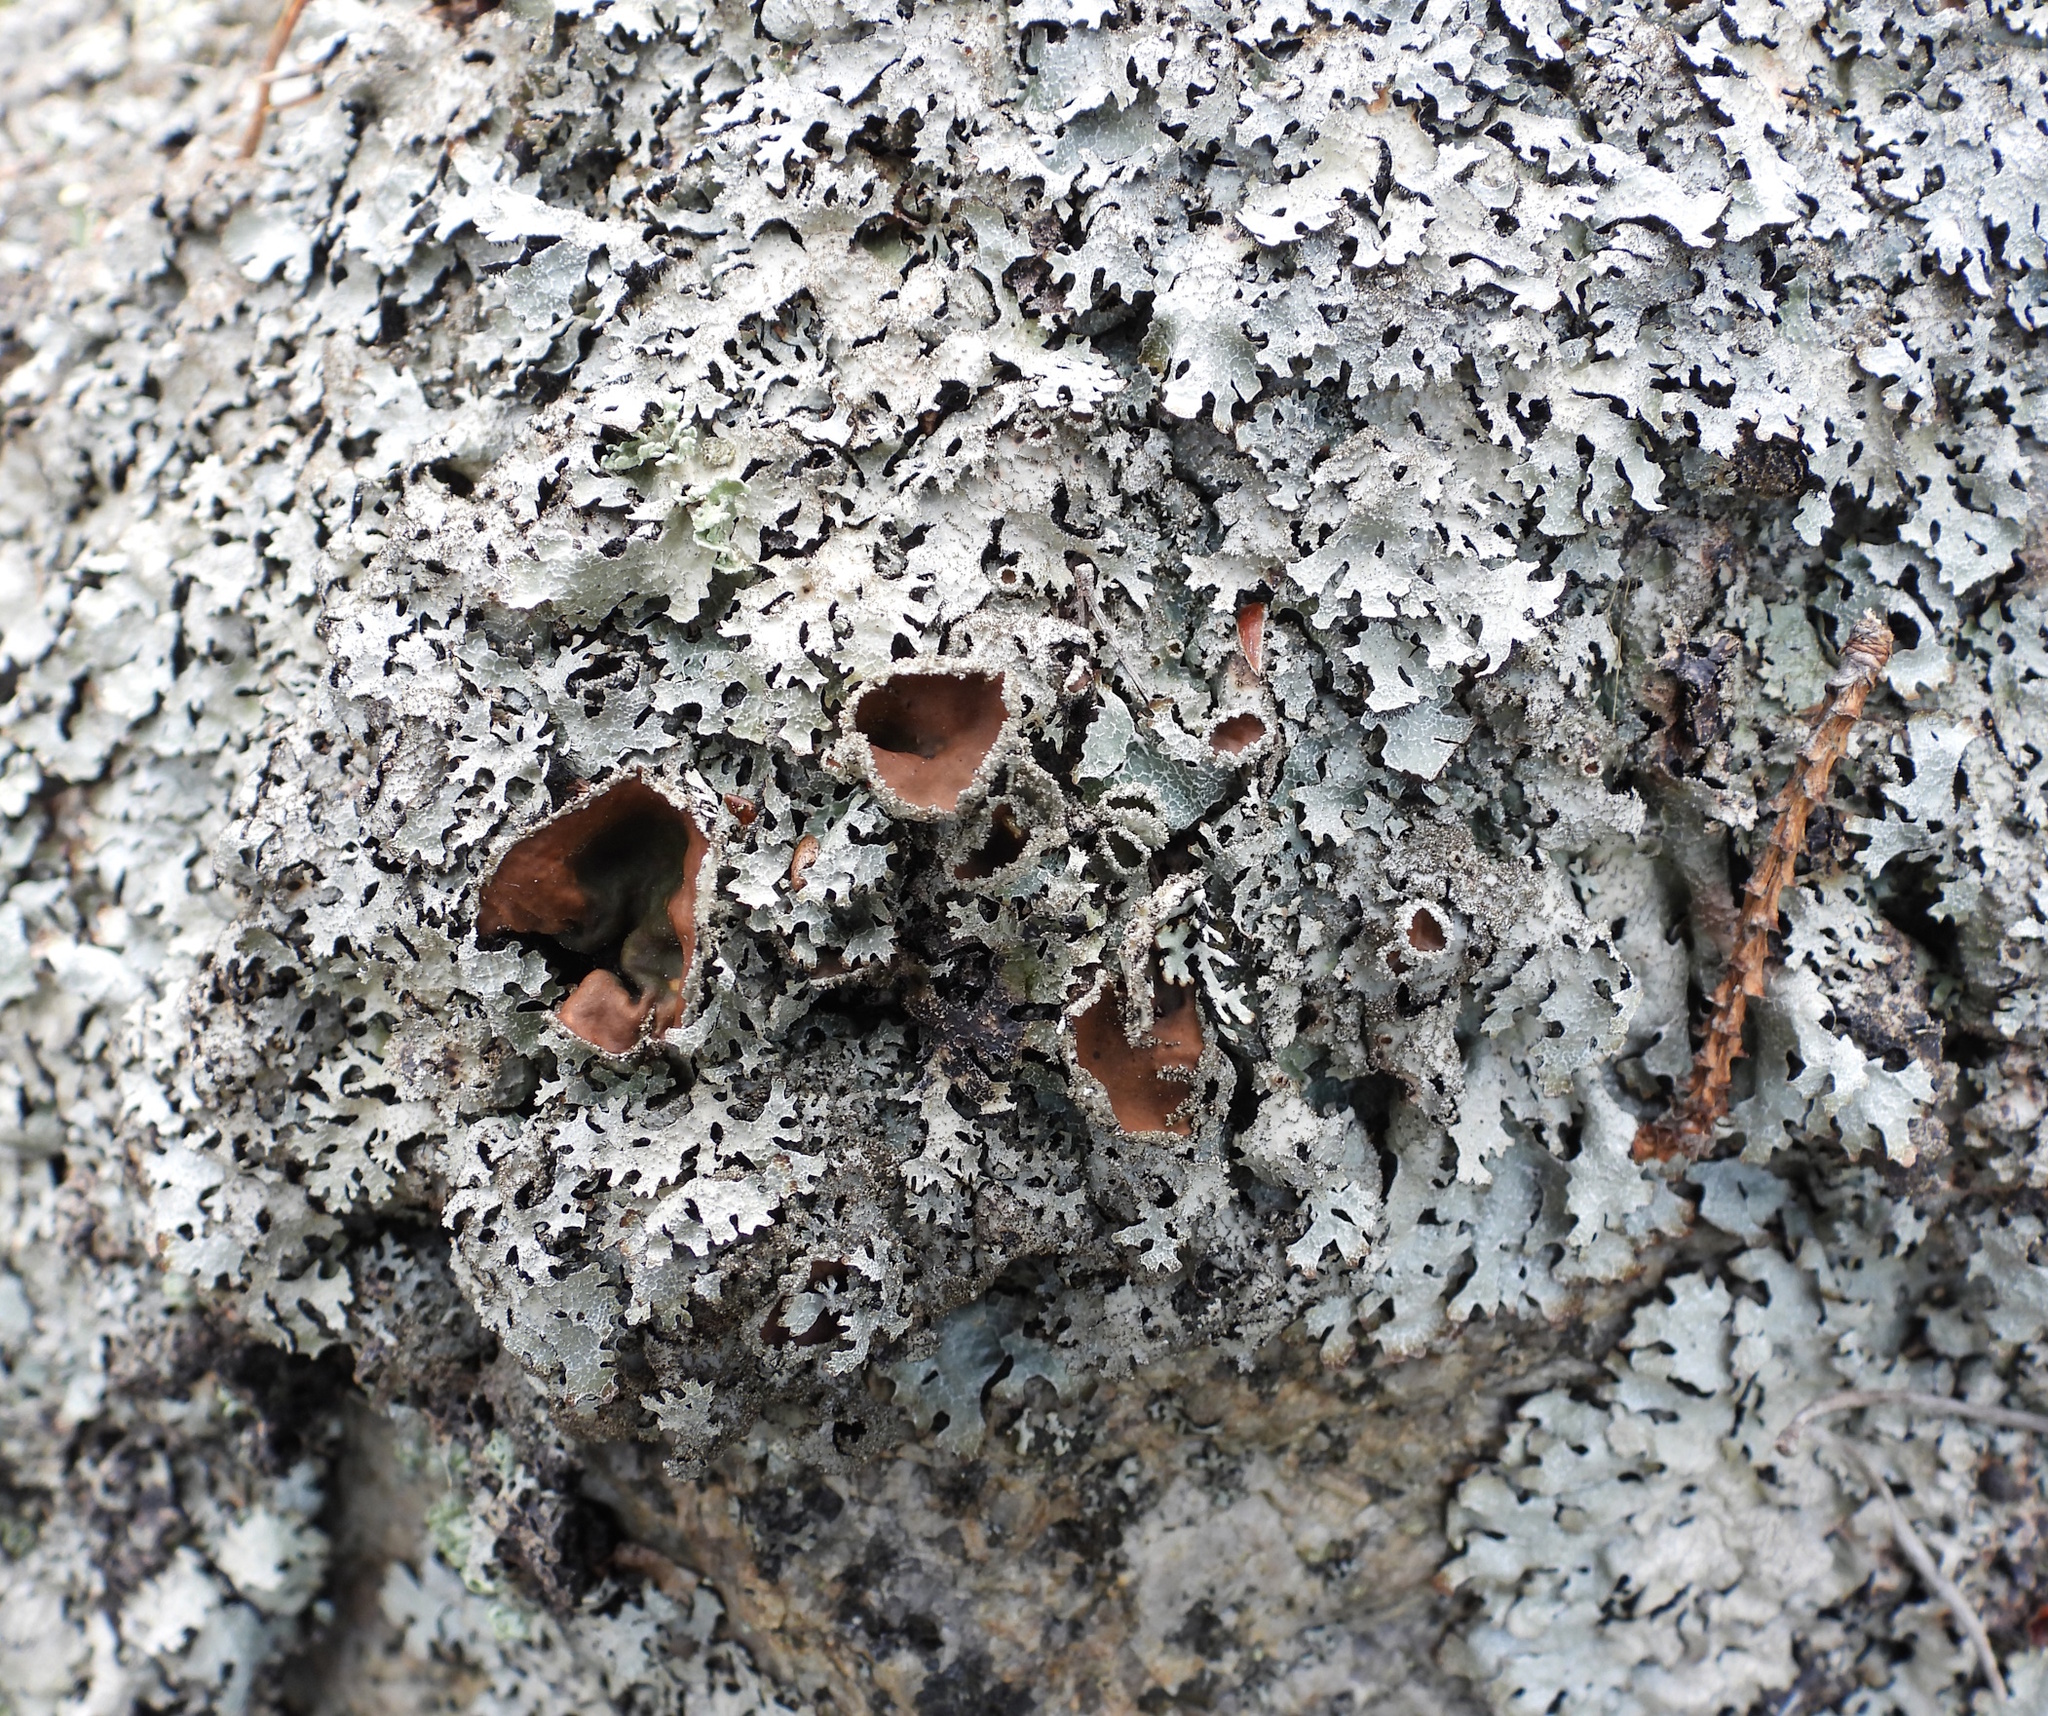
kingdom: Fungi
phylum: Ascomycota
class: Lecanoromycetes
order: Lecanorales
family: Parmeliaceae
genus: Parmelia
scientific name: Parmelia saxatilis
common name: Salted shield lichen
